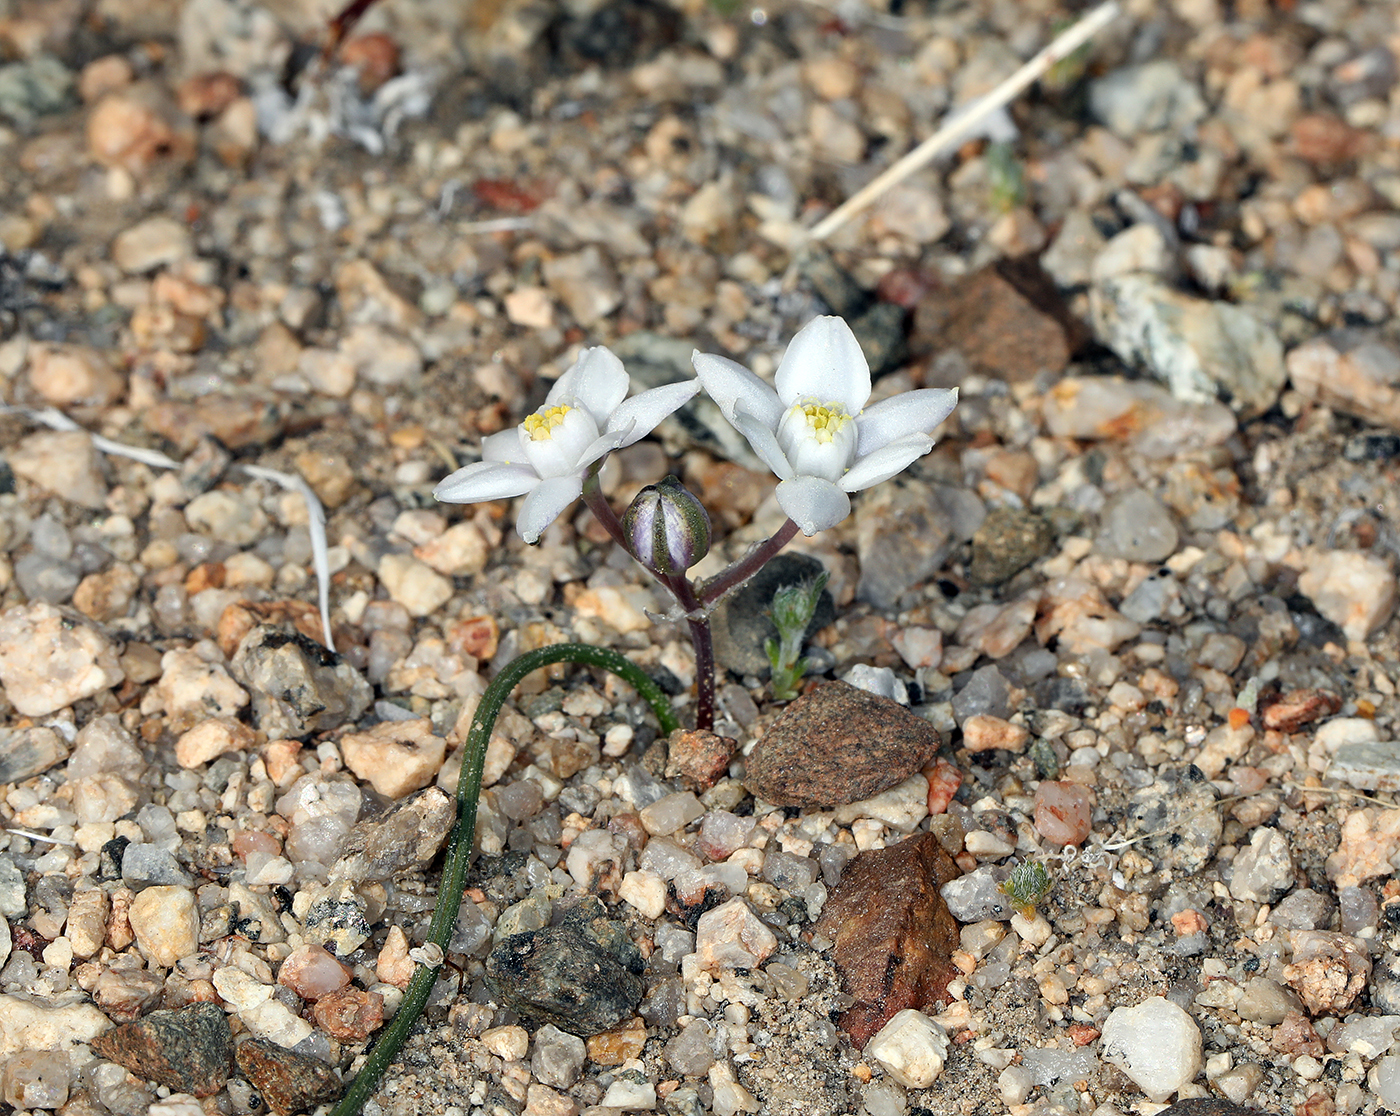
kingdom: Plantae
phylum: Tracheophyta
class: Liliopsida
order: Asparagales
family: Asparagaceae
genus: Muilla
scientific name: Muilla coronata
